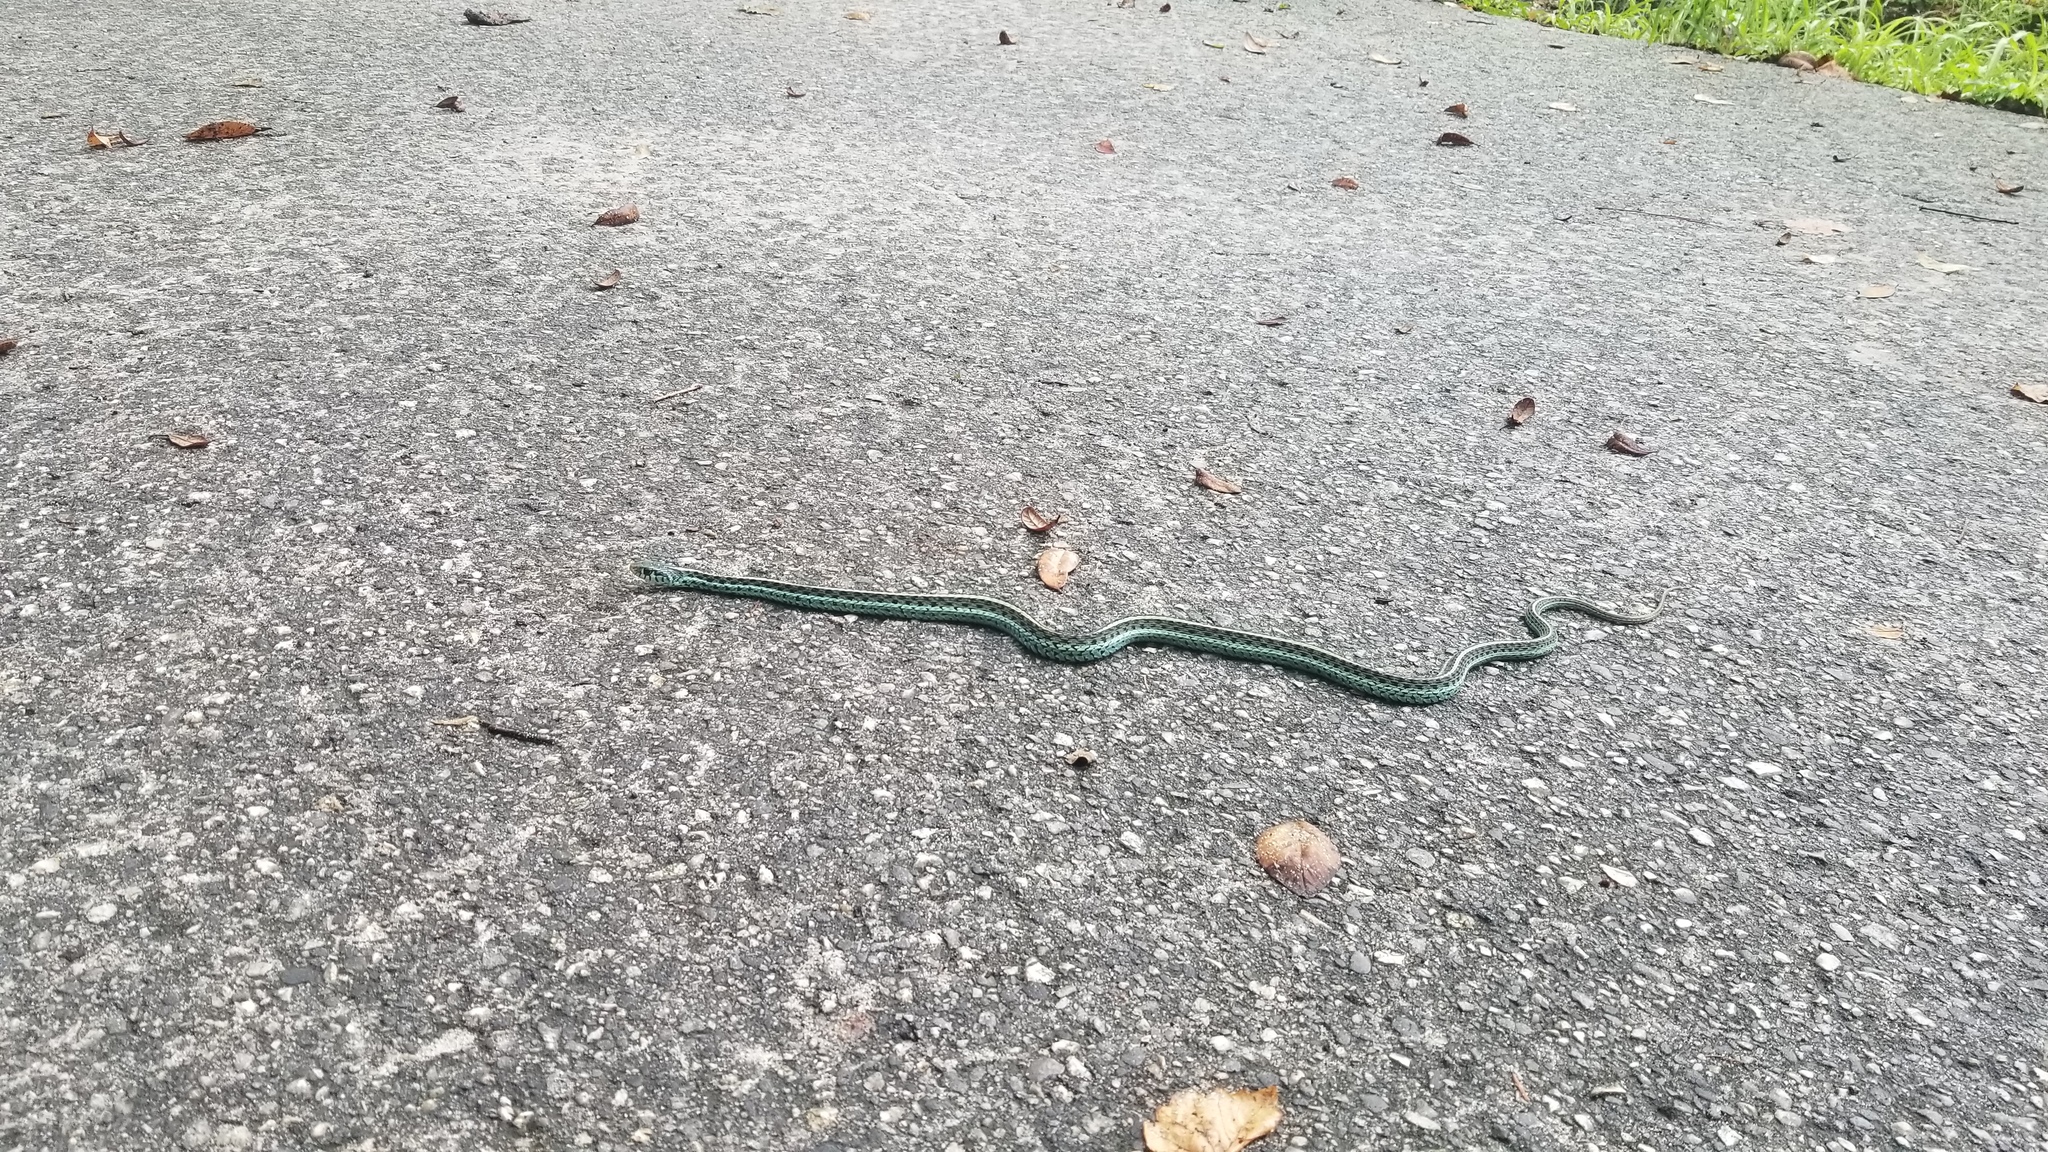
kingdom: Animalia
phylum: Chordata
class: Squamata
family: Colubridae
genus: Thamnophis
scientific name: Thamnophis sirtalis
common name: Common garter snake
